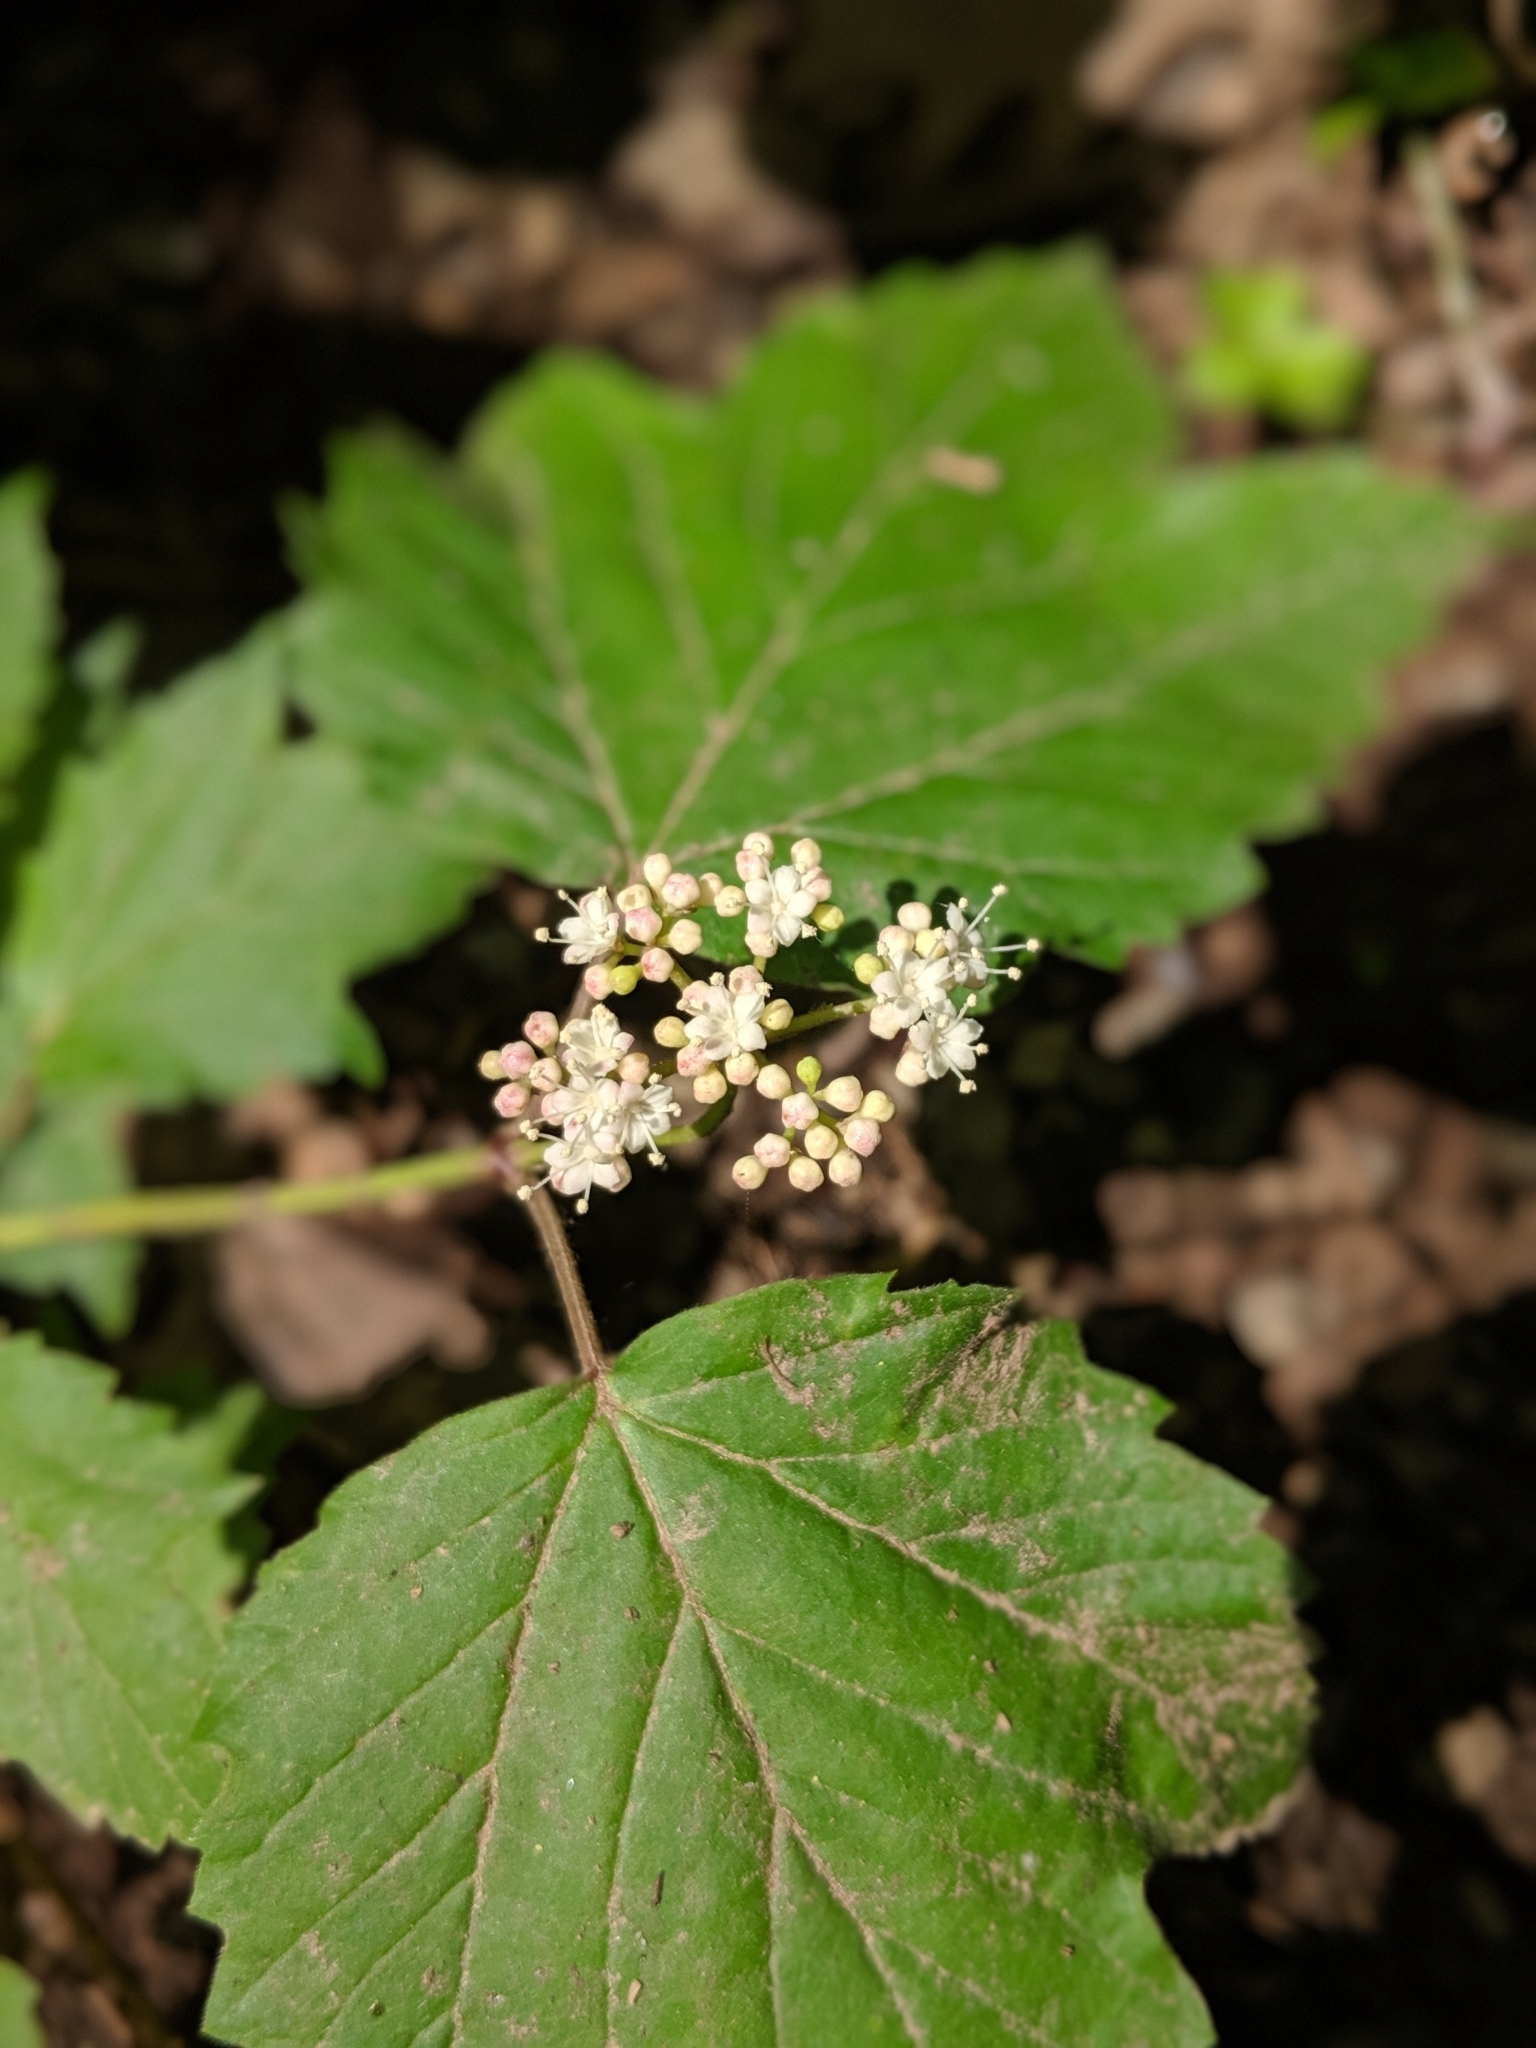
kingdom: Plantae
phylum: Tracheophyta
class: Magnoliopsida
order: Dipsacales
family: Viburnaceae
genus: Viburnum
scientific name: Viburnum acerifolium
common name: Dockmackie
